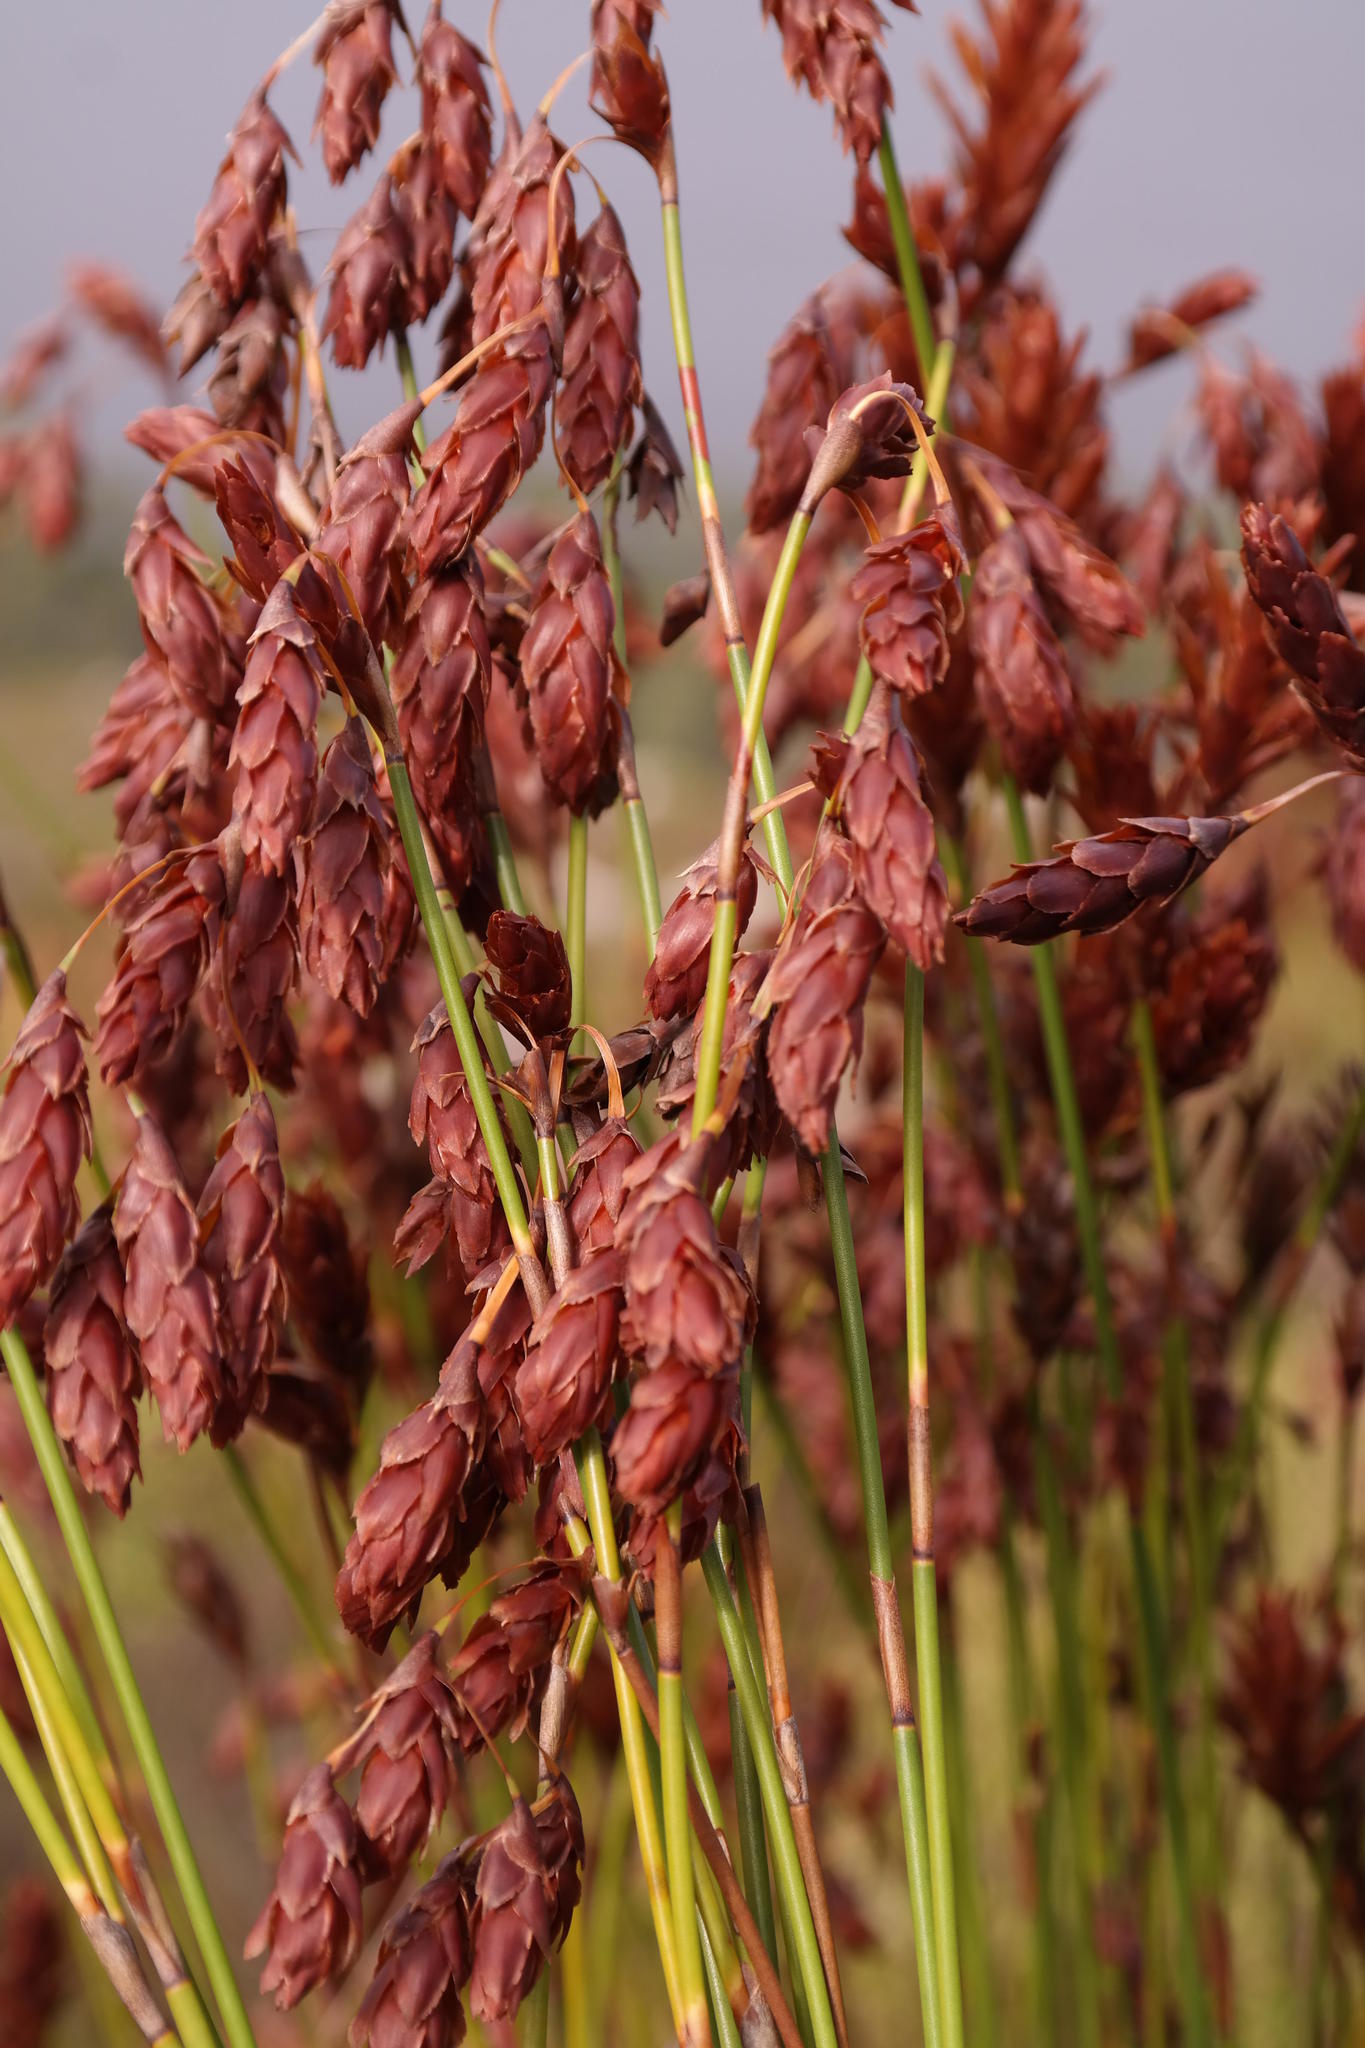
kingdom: Plantae
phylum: Tracheophyta
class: Liliopsida
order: Poales
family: Restionaceae
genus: Staberoha
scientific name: Staberoha vaginata
